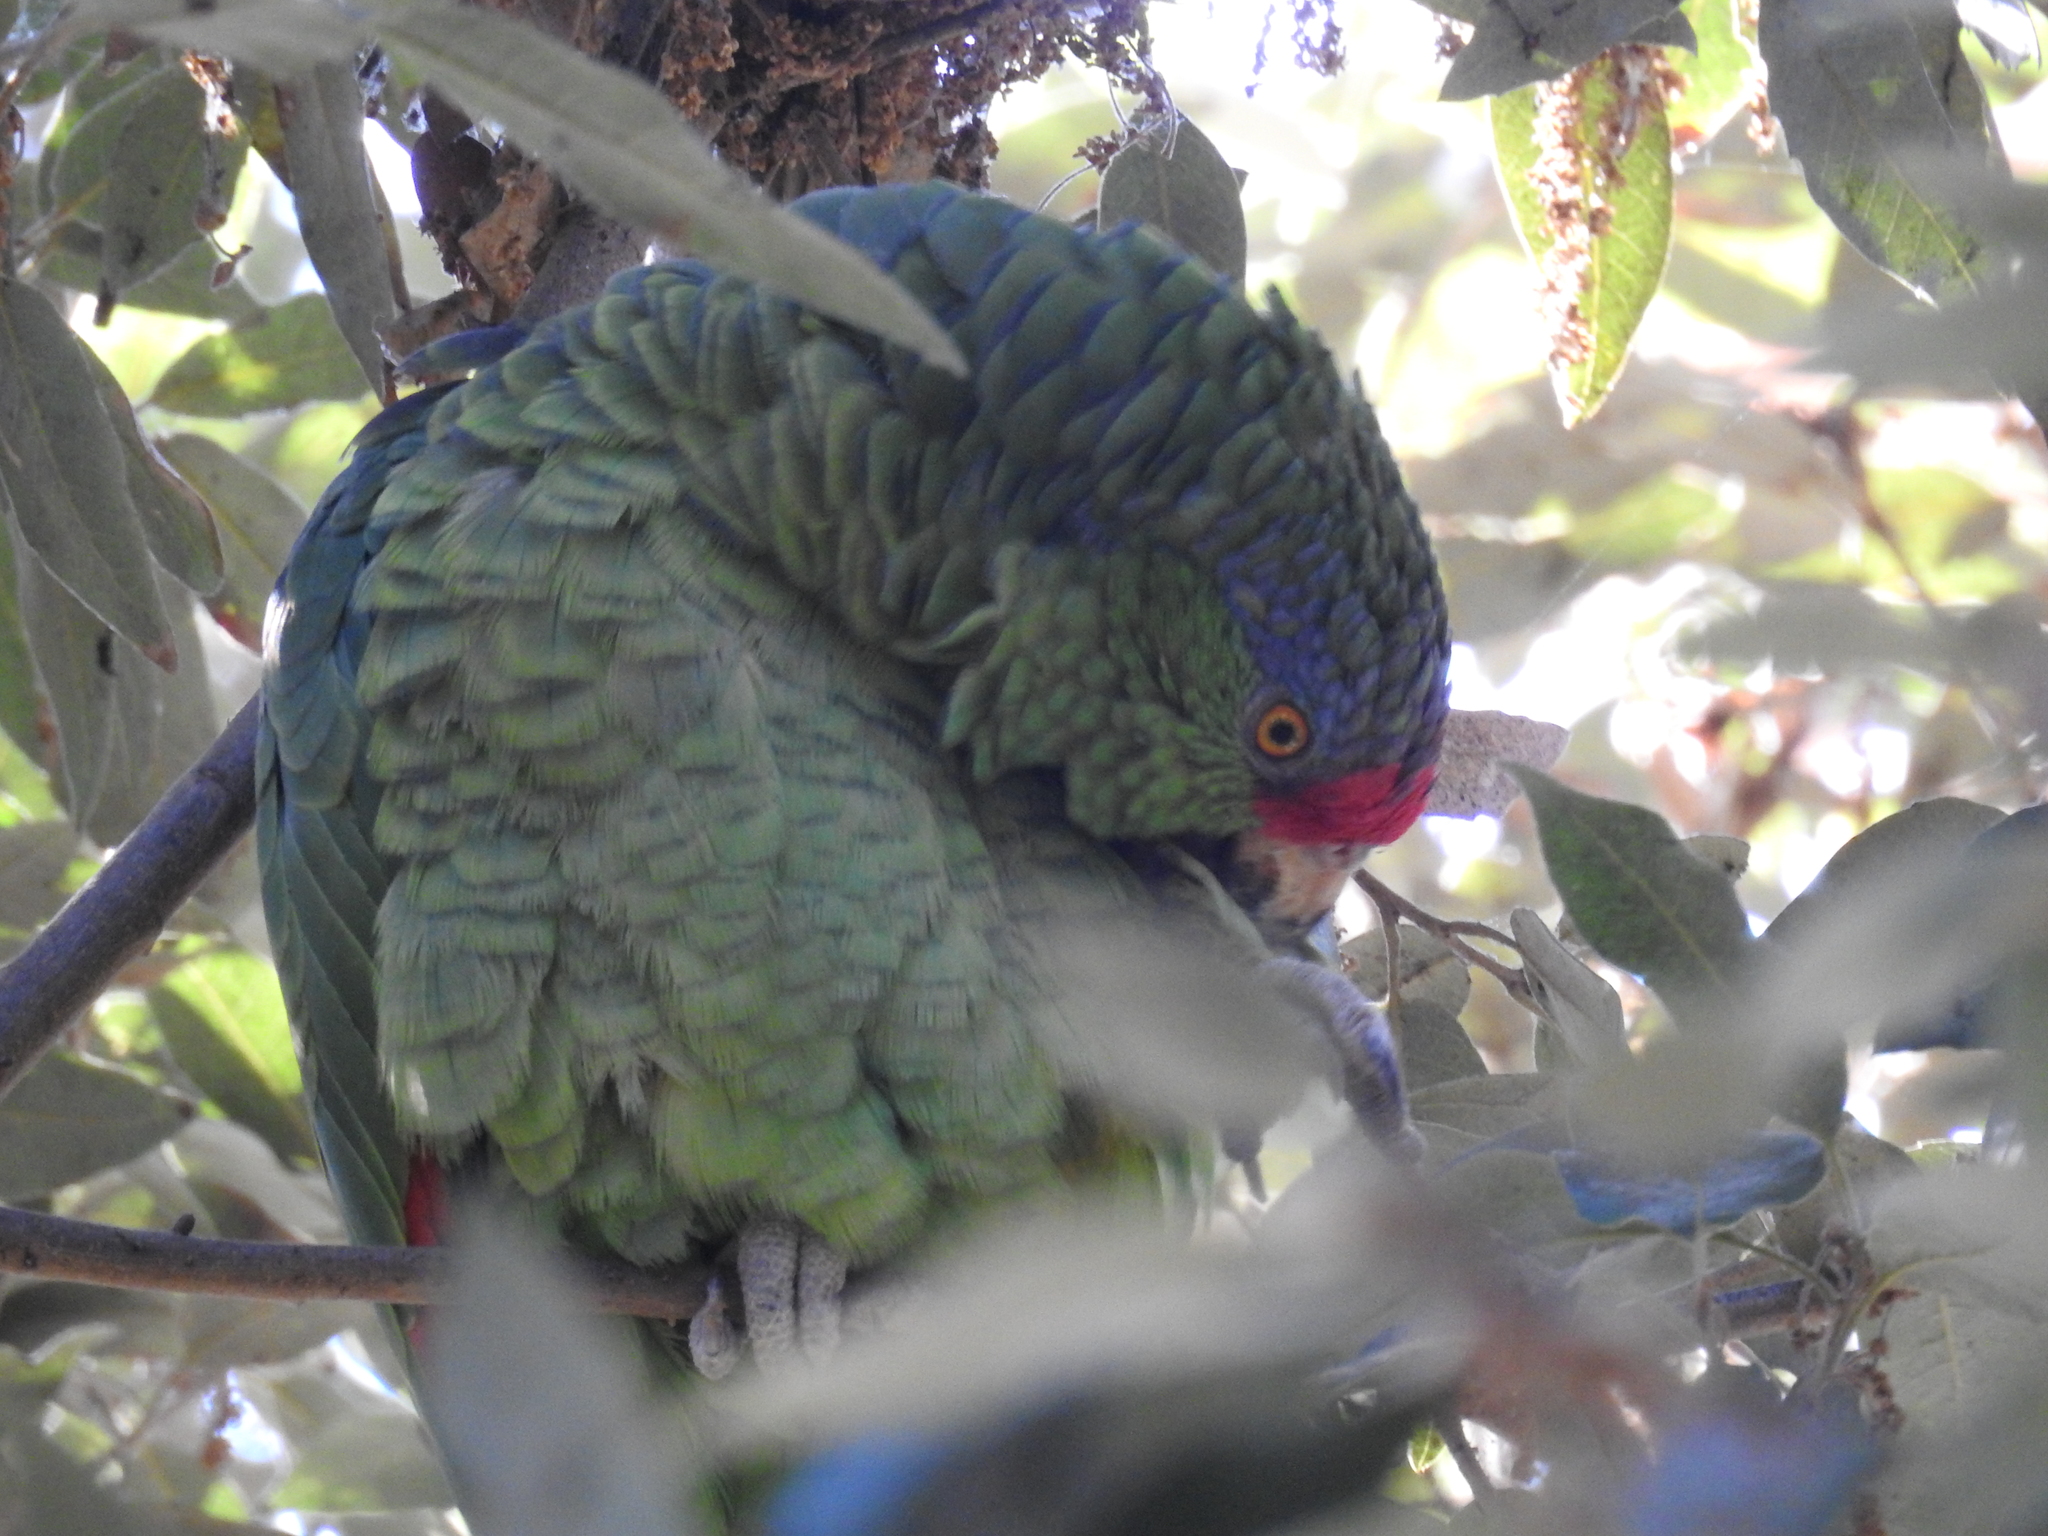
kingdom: Animalia
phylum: Chordata
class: Aves
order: Psittaciformes
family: Psittacidae
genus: Amazona
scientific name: Amazona viridigenalis
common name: Red-crowned amazon
